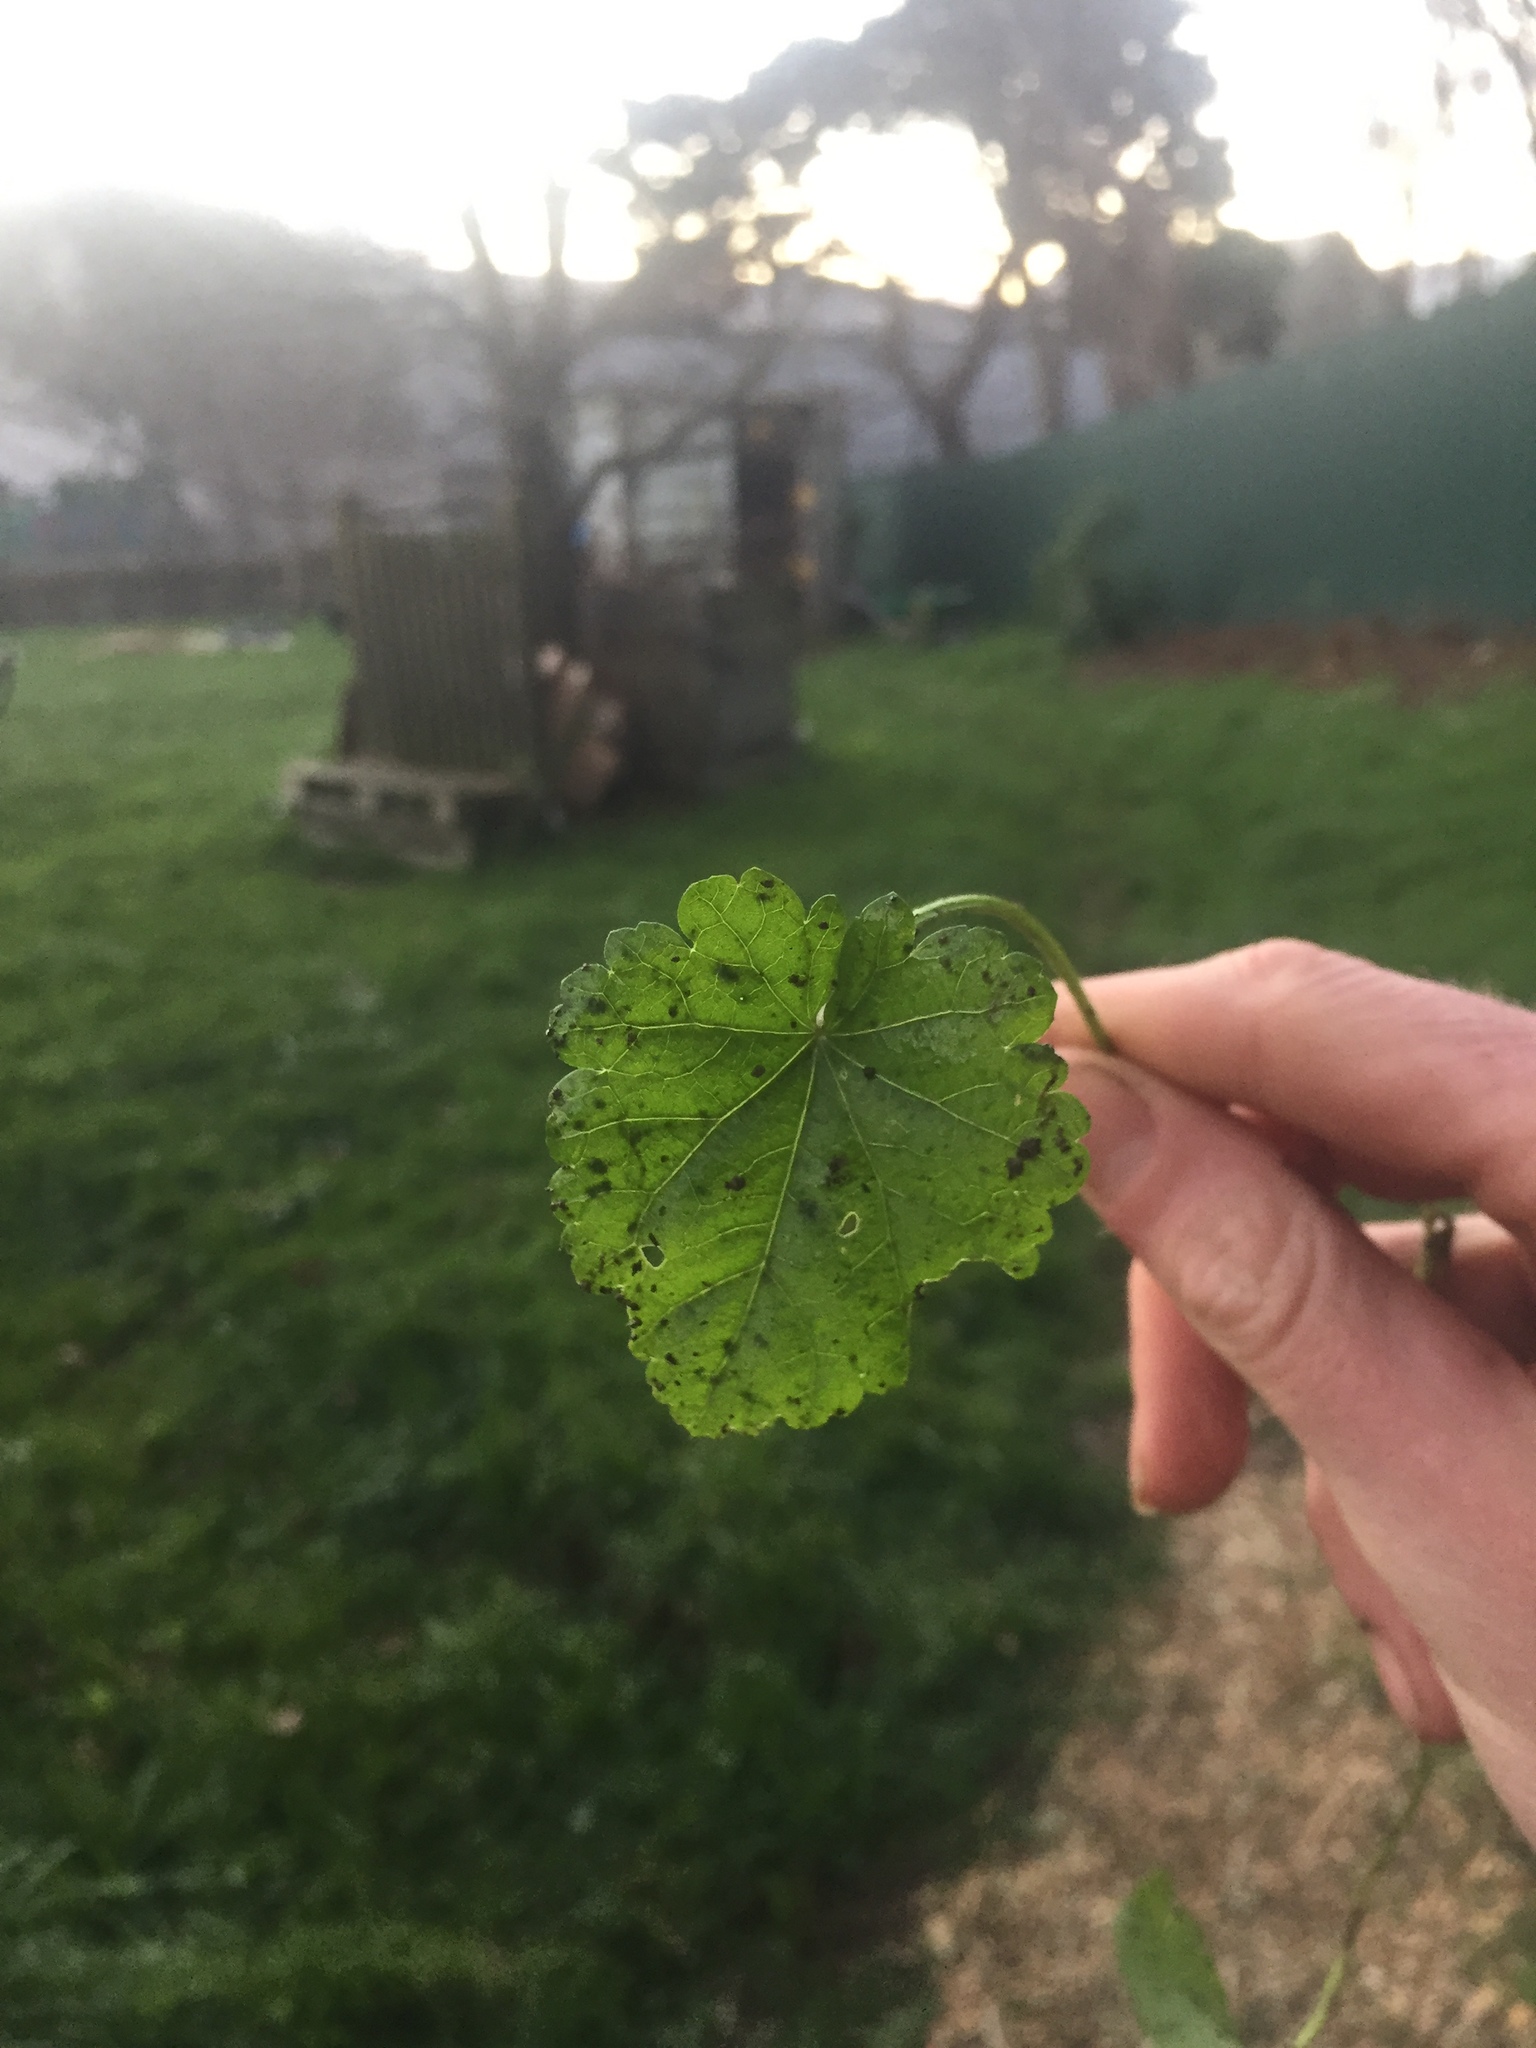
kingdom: Plantae
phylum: Tracheophyta
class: Magnoliopsida
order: Malvales
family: Malvaceae
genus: Modiola
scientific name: Modiola caroliniana
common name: Carolina bristlemallow
